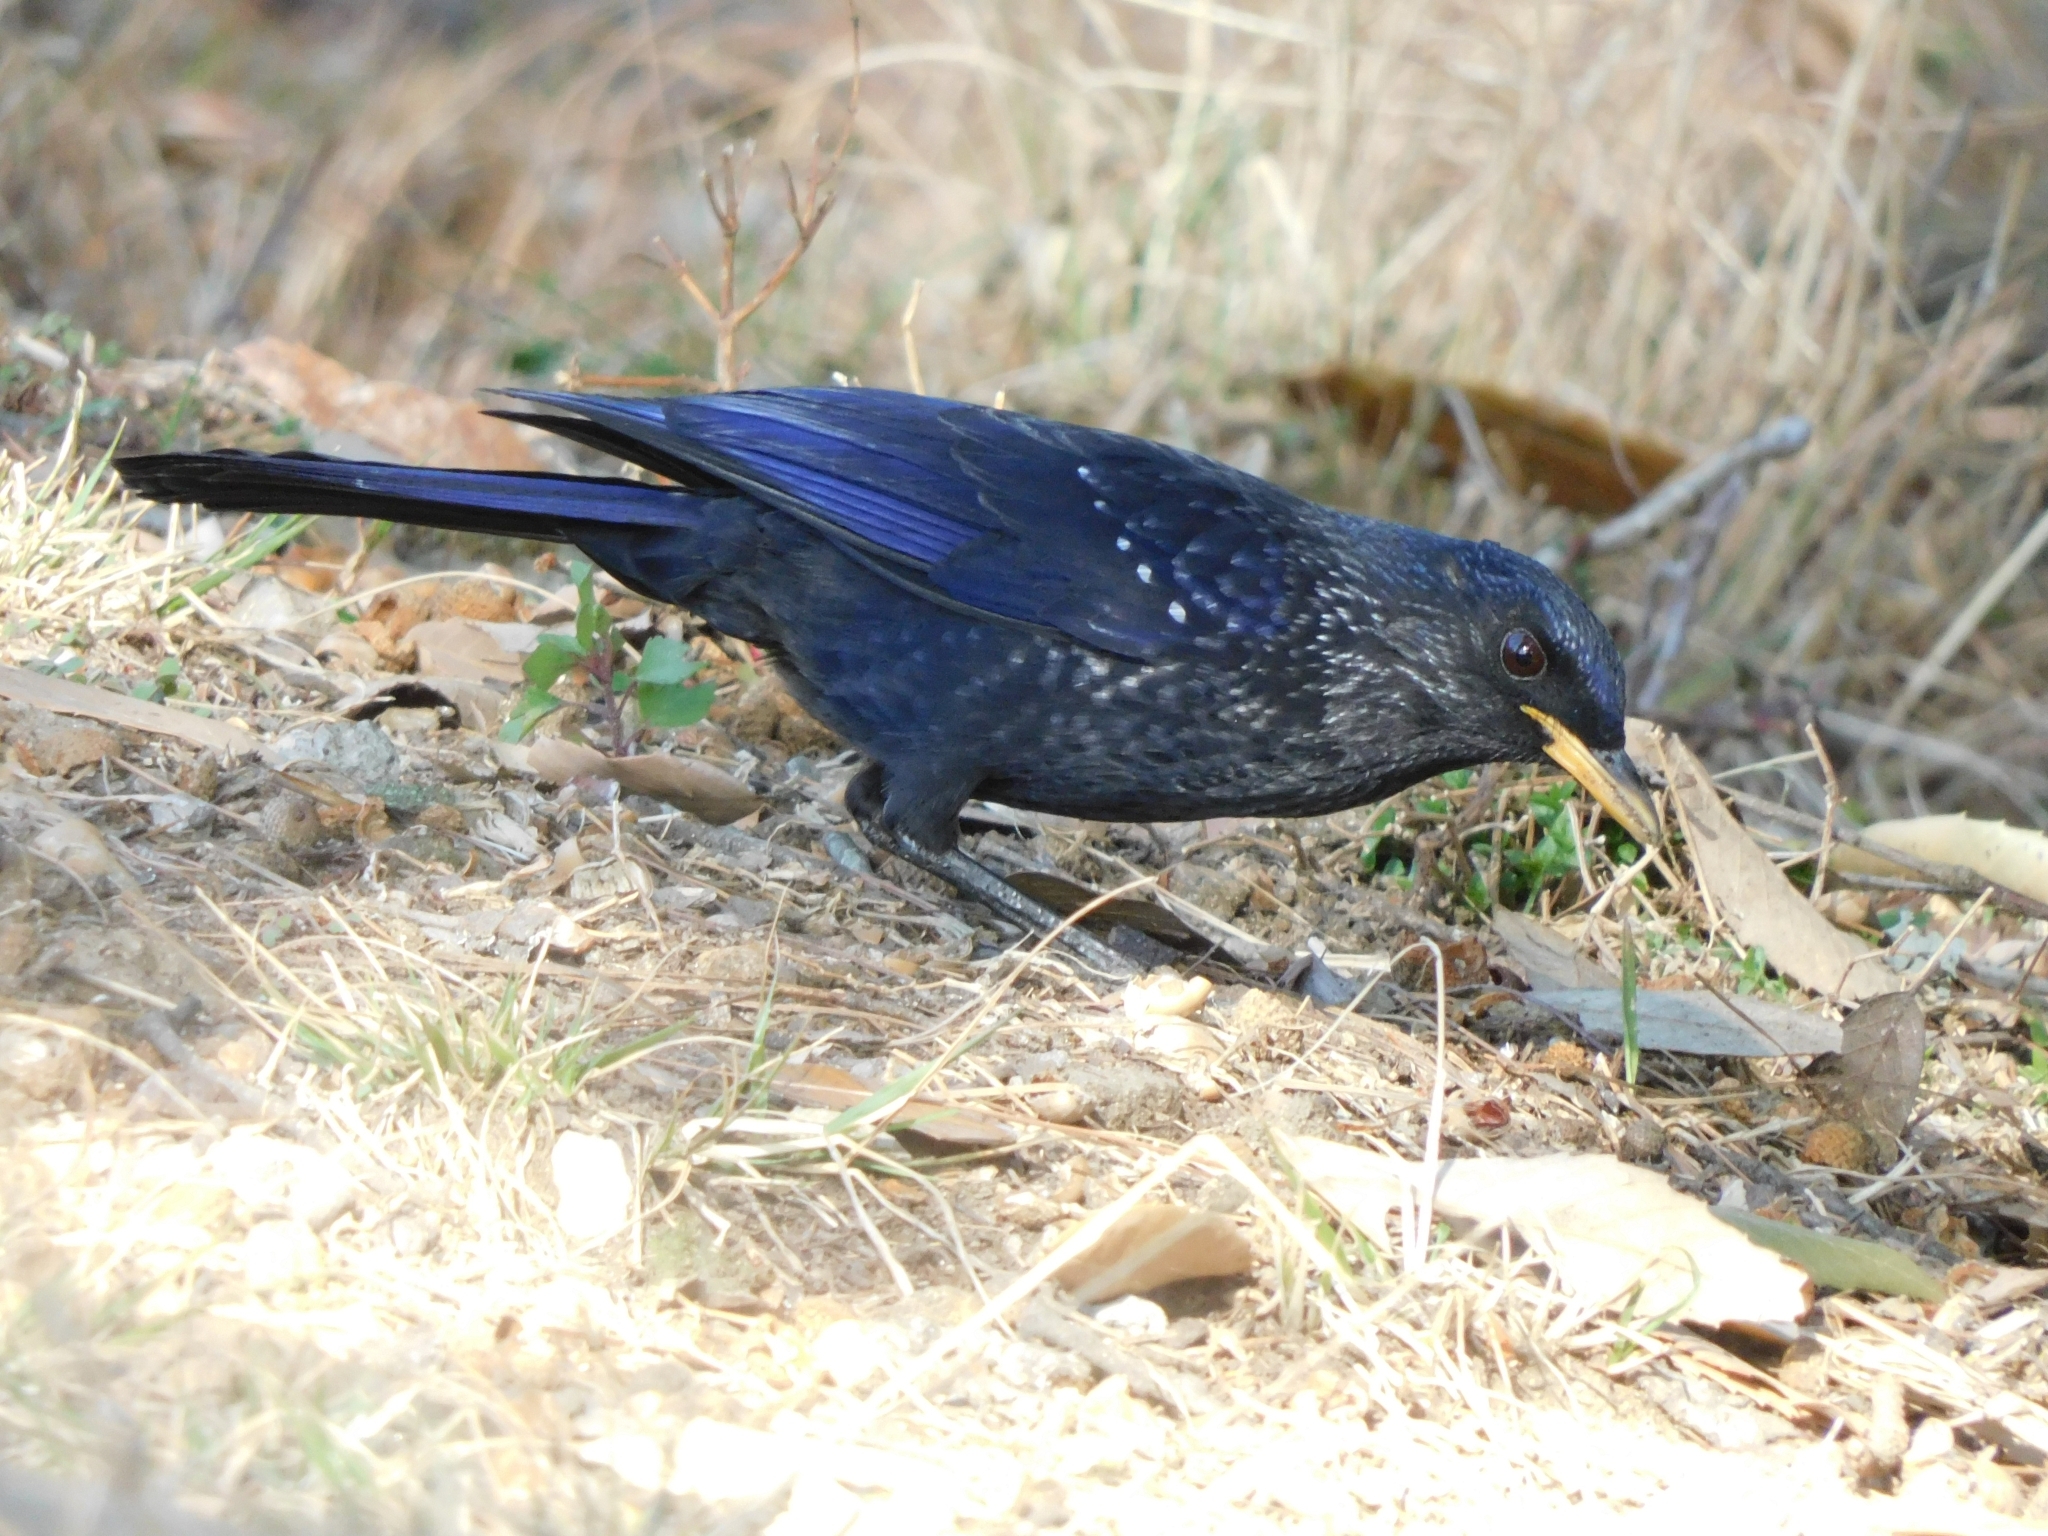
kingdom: Animalia
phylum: Chordata
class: Aves
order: Passeriformes
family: Muscicapidae
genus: Myophonus
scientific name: Myophonus caeruleus
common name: Blue whistling-thrush
